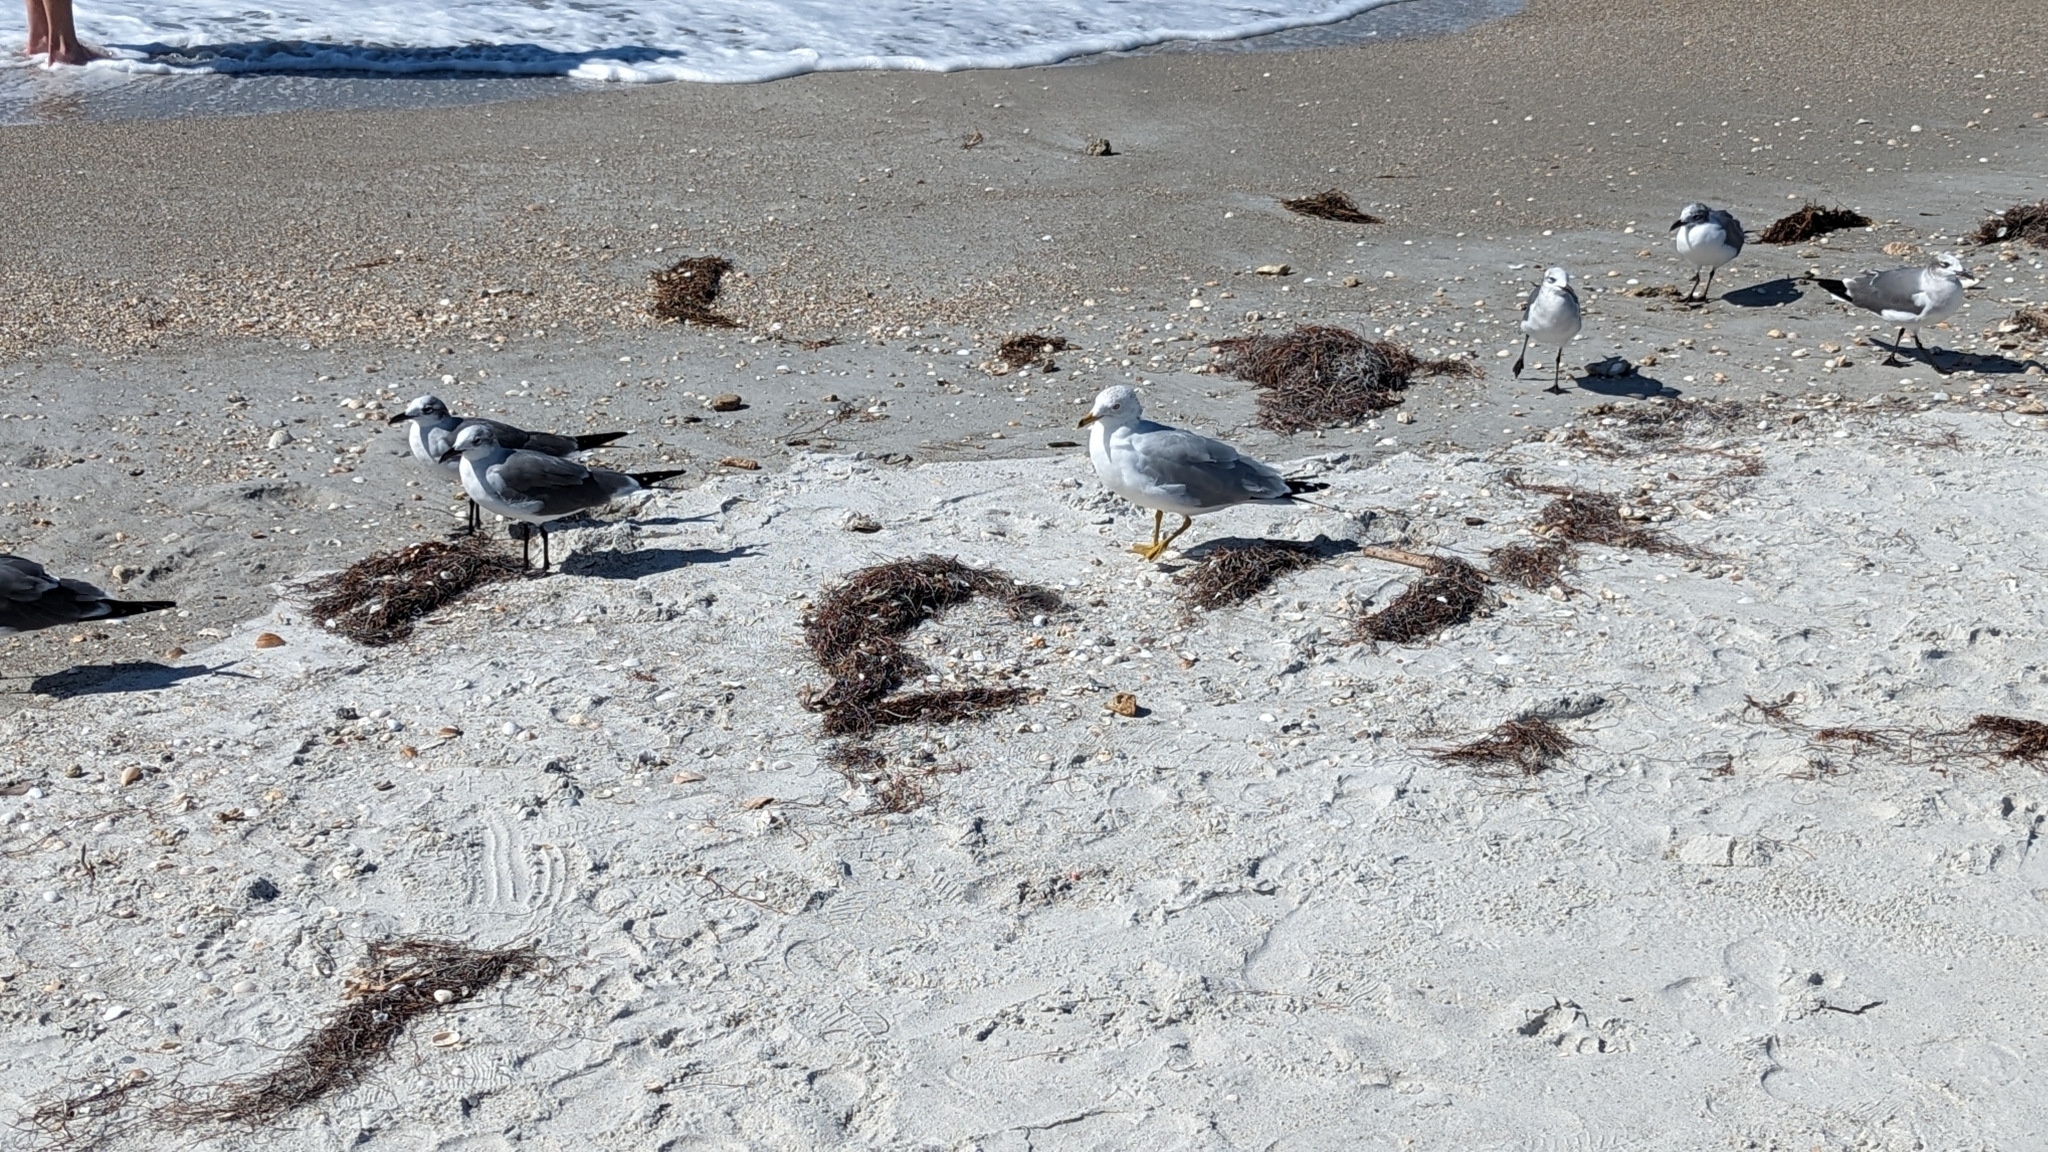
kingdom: Animalia
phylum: Chordata
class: Aves
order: Charadriiformes
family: Laridae
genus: Leucophaeus
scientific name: Leucophaeus atricilla
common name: Laughing gull
